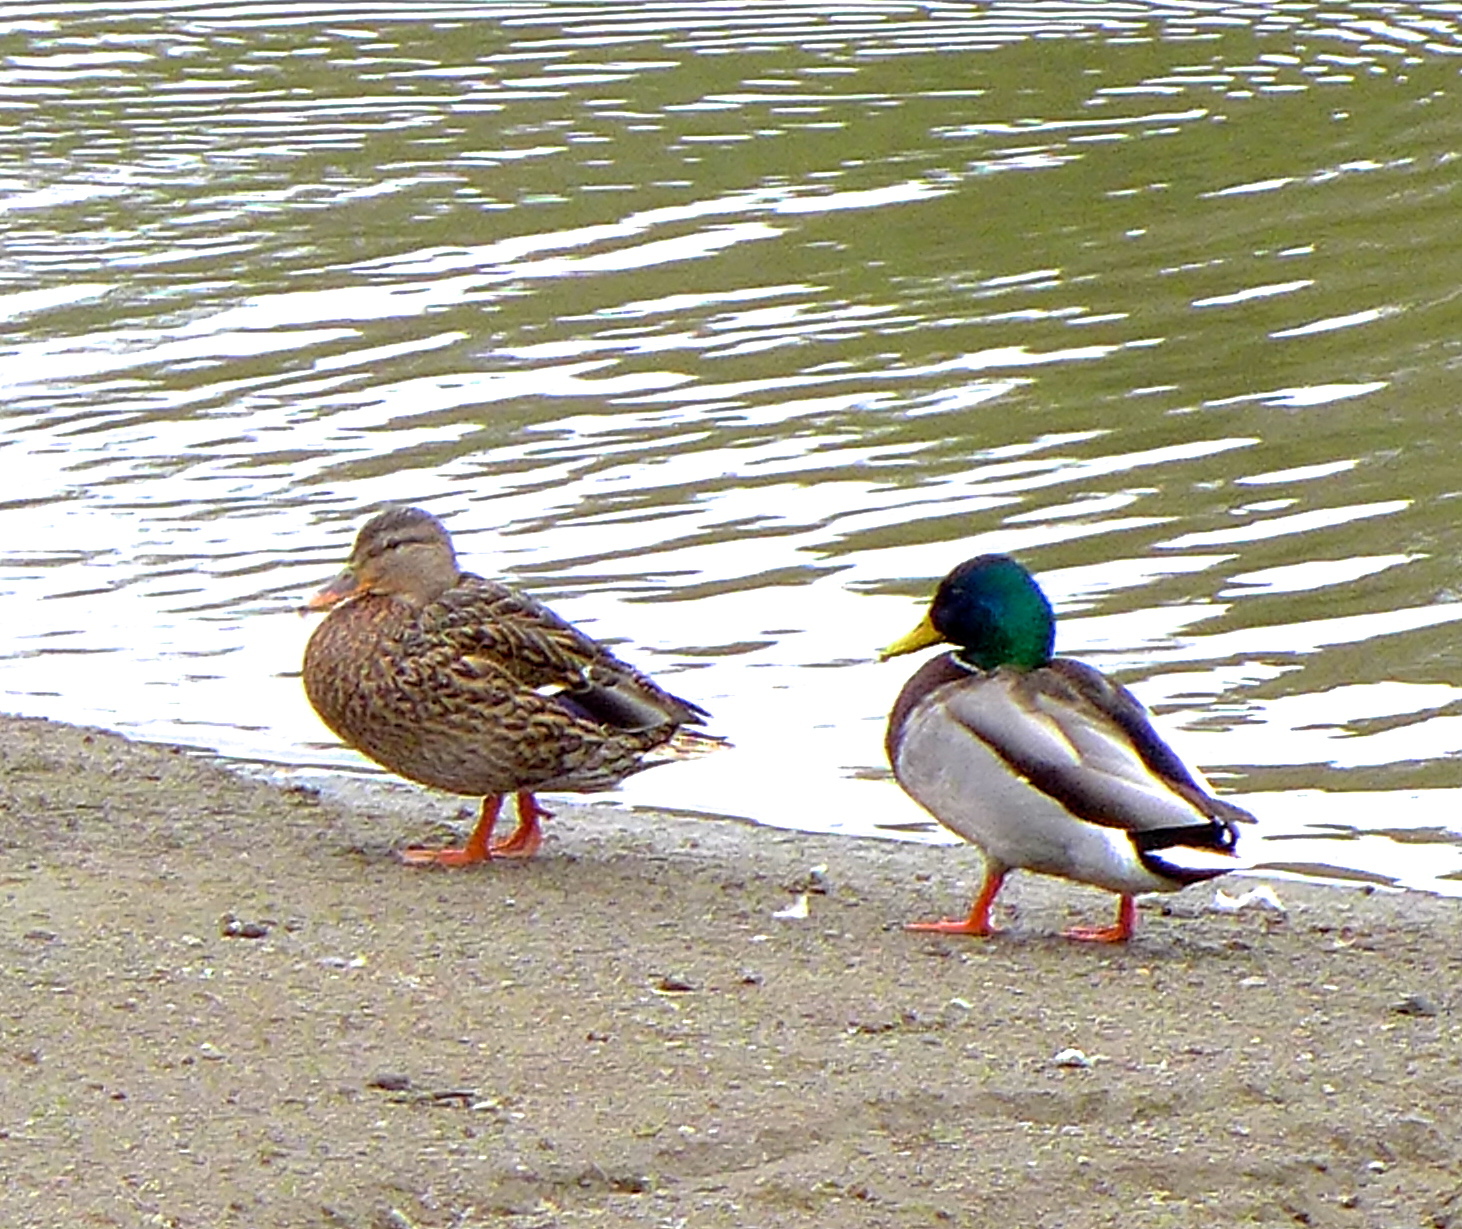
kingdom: Animalia
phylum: Chordata
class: Aves
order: Anseriformes
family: Anatidae
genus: Anas
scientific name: Anas platyrhynchos
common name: Mallard
